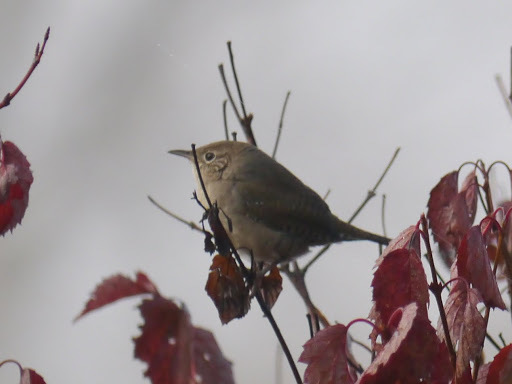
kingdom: Animalia
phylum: Chordata
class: Aves
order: Passeriformes
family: Troglodytidae
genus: Troglodytes
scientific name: Troglodytes aedon
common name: House wren
